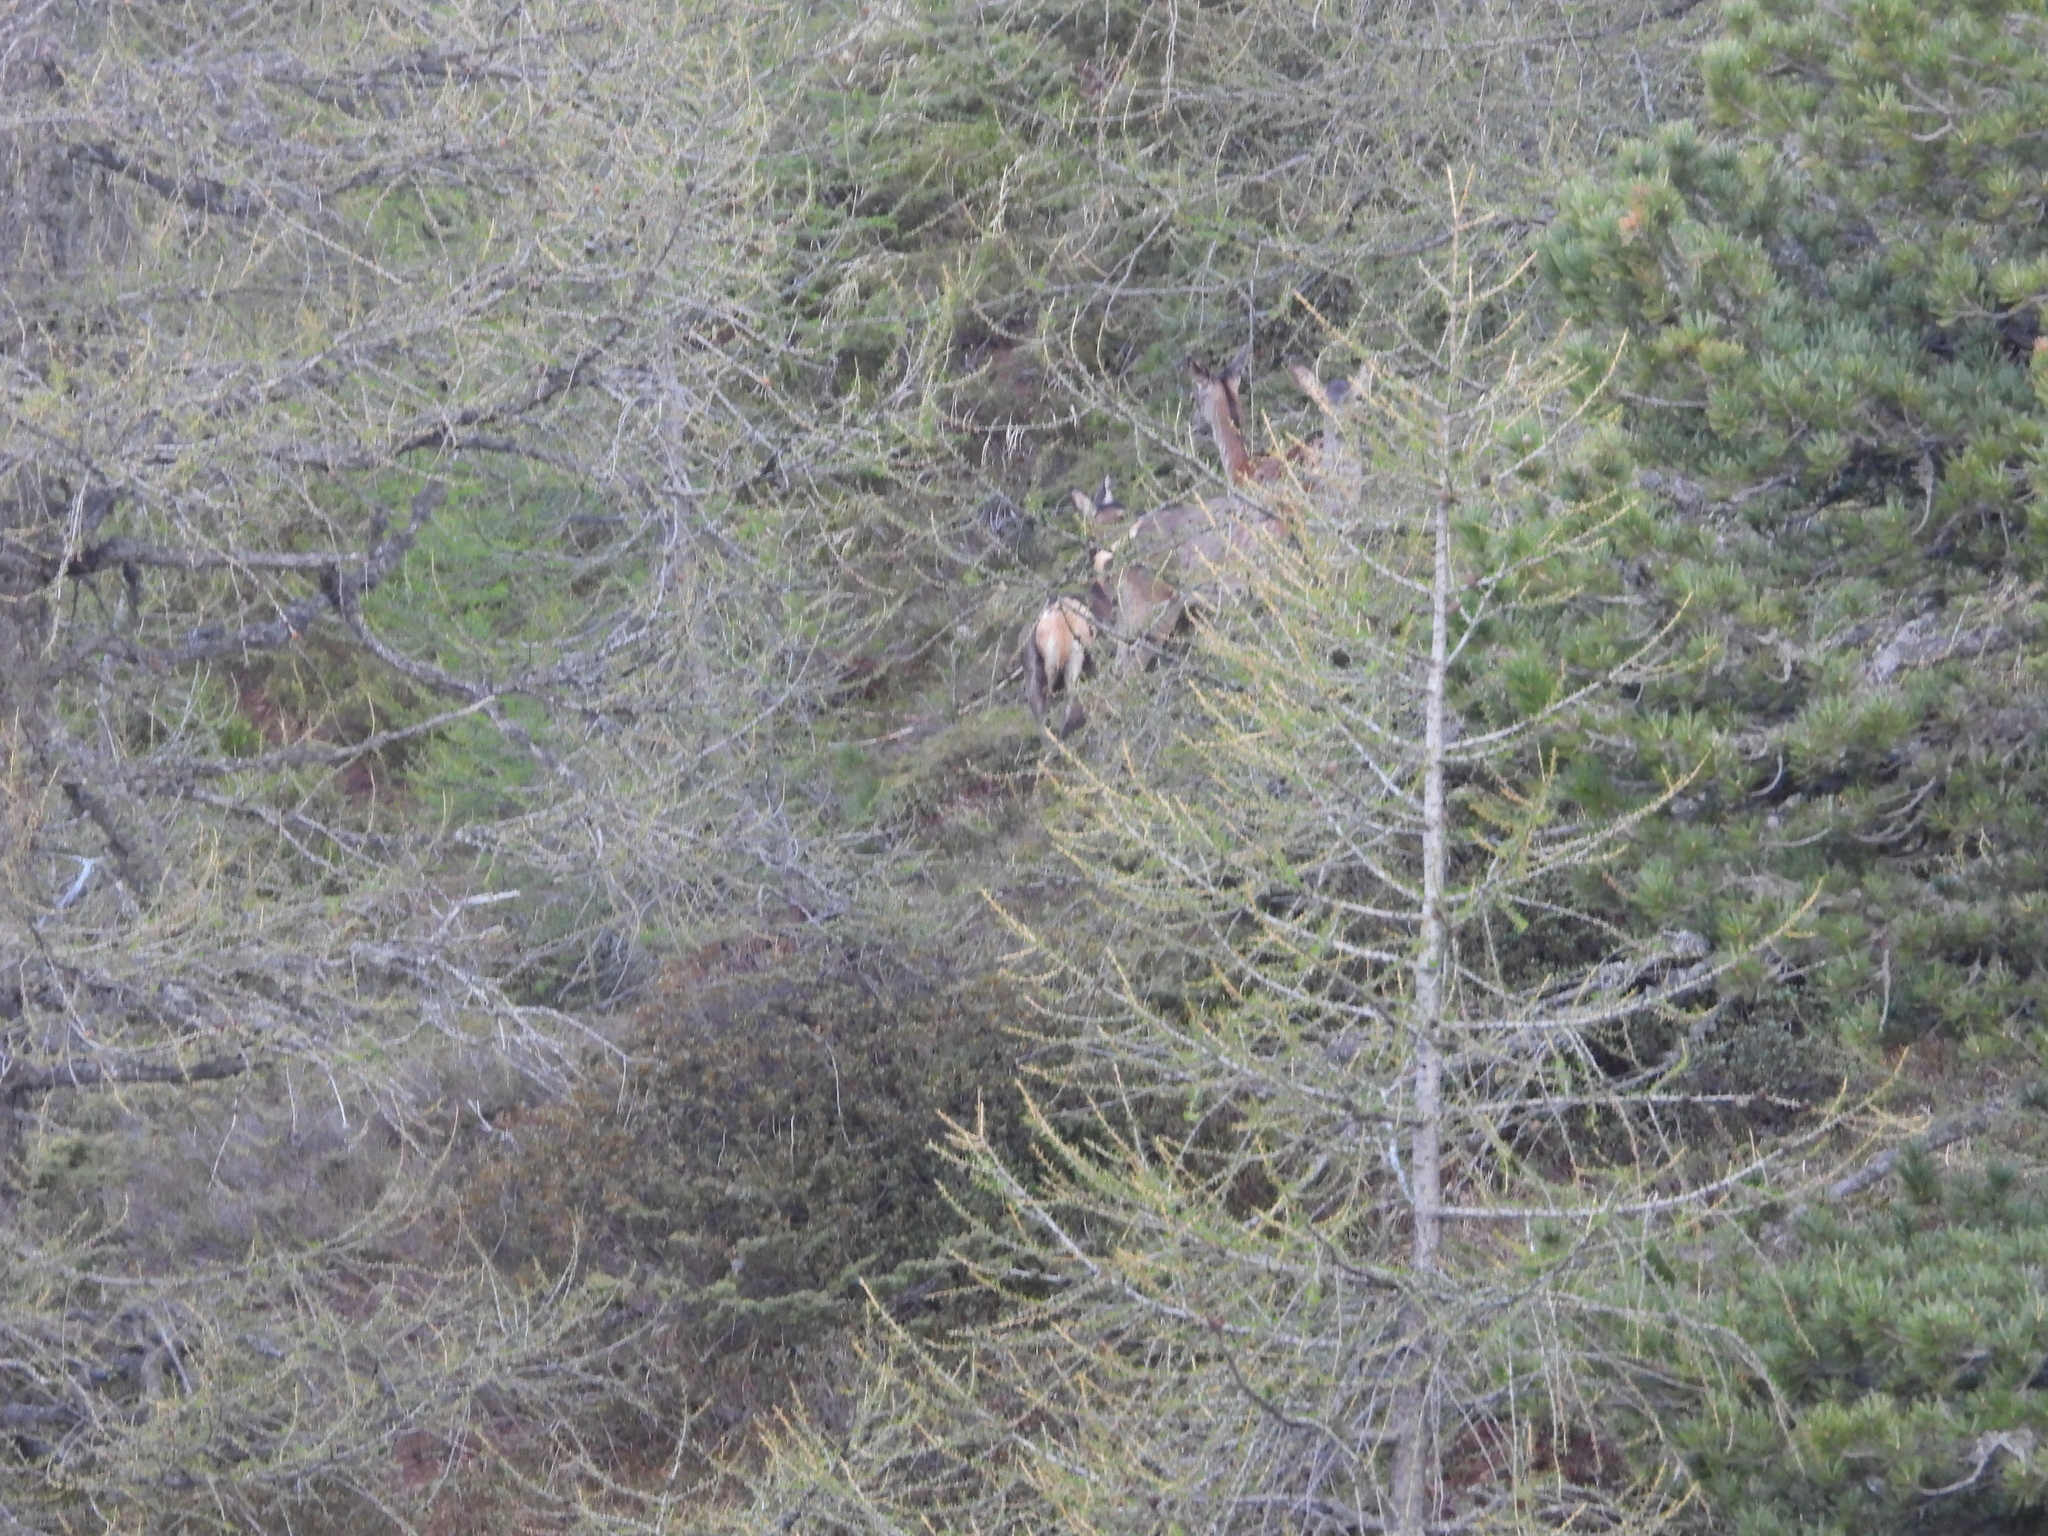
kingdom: Animalia
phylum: Chordata
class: Mammalia
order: Artiodactyla
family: Cervidae
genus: Cervus
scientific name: Cervus elaphus
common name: Red deer
